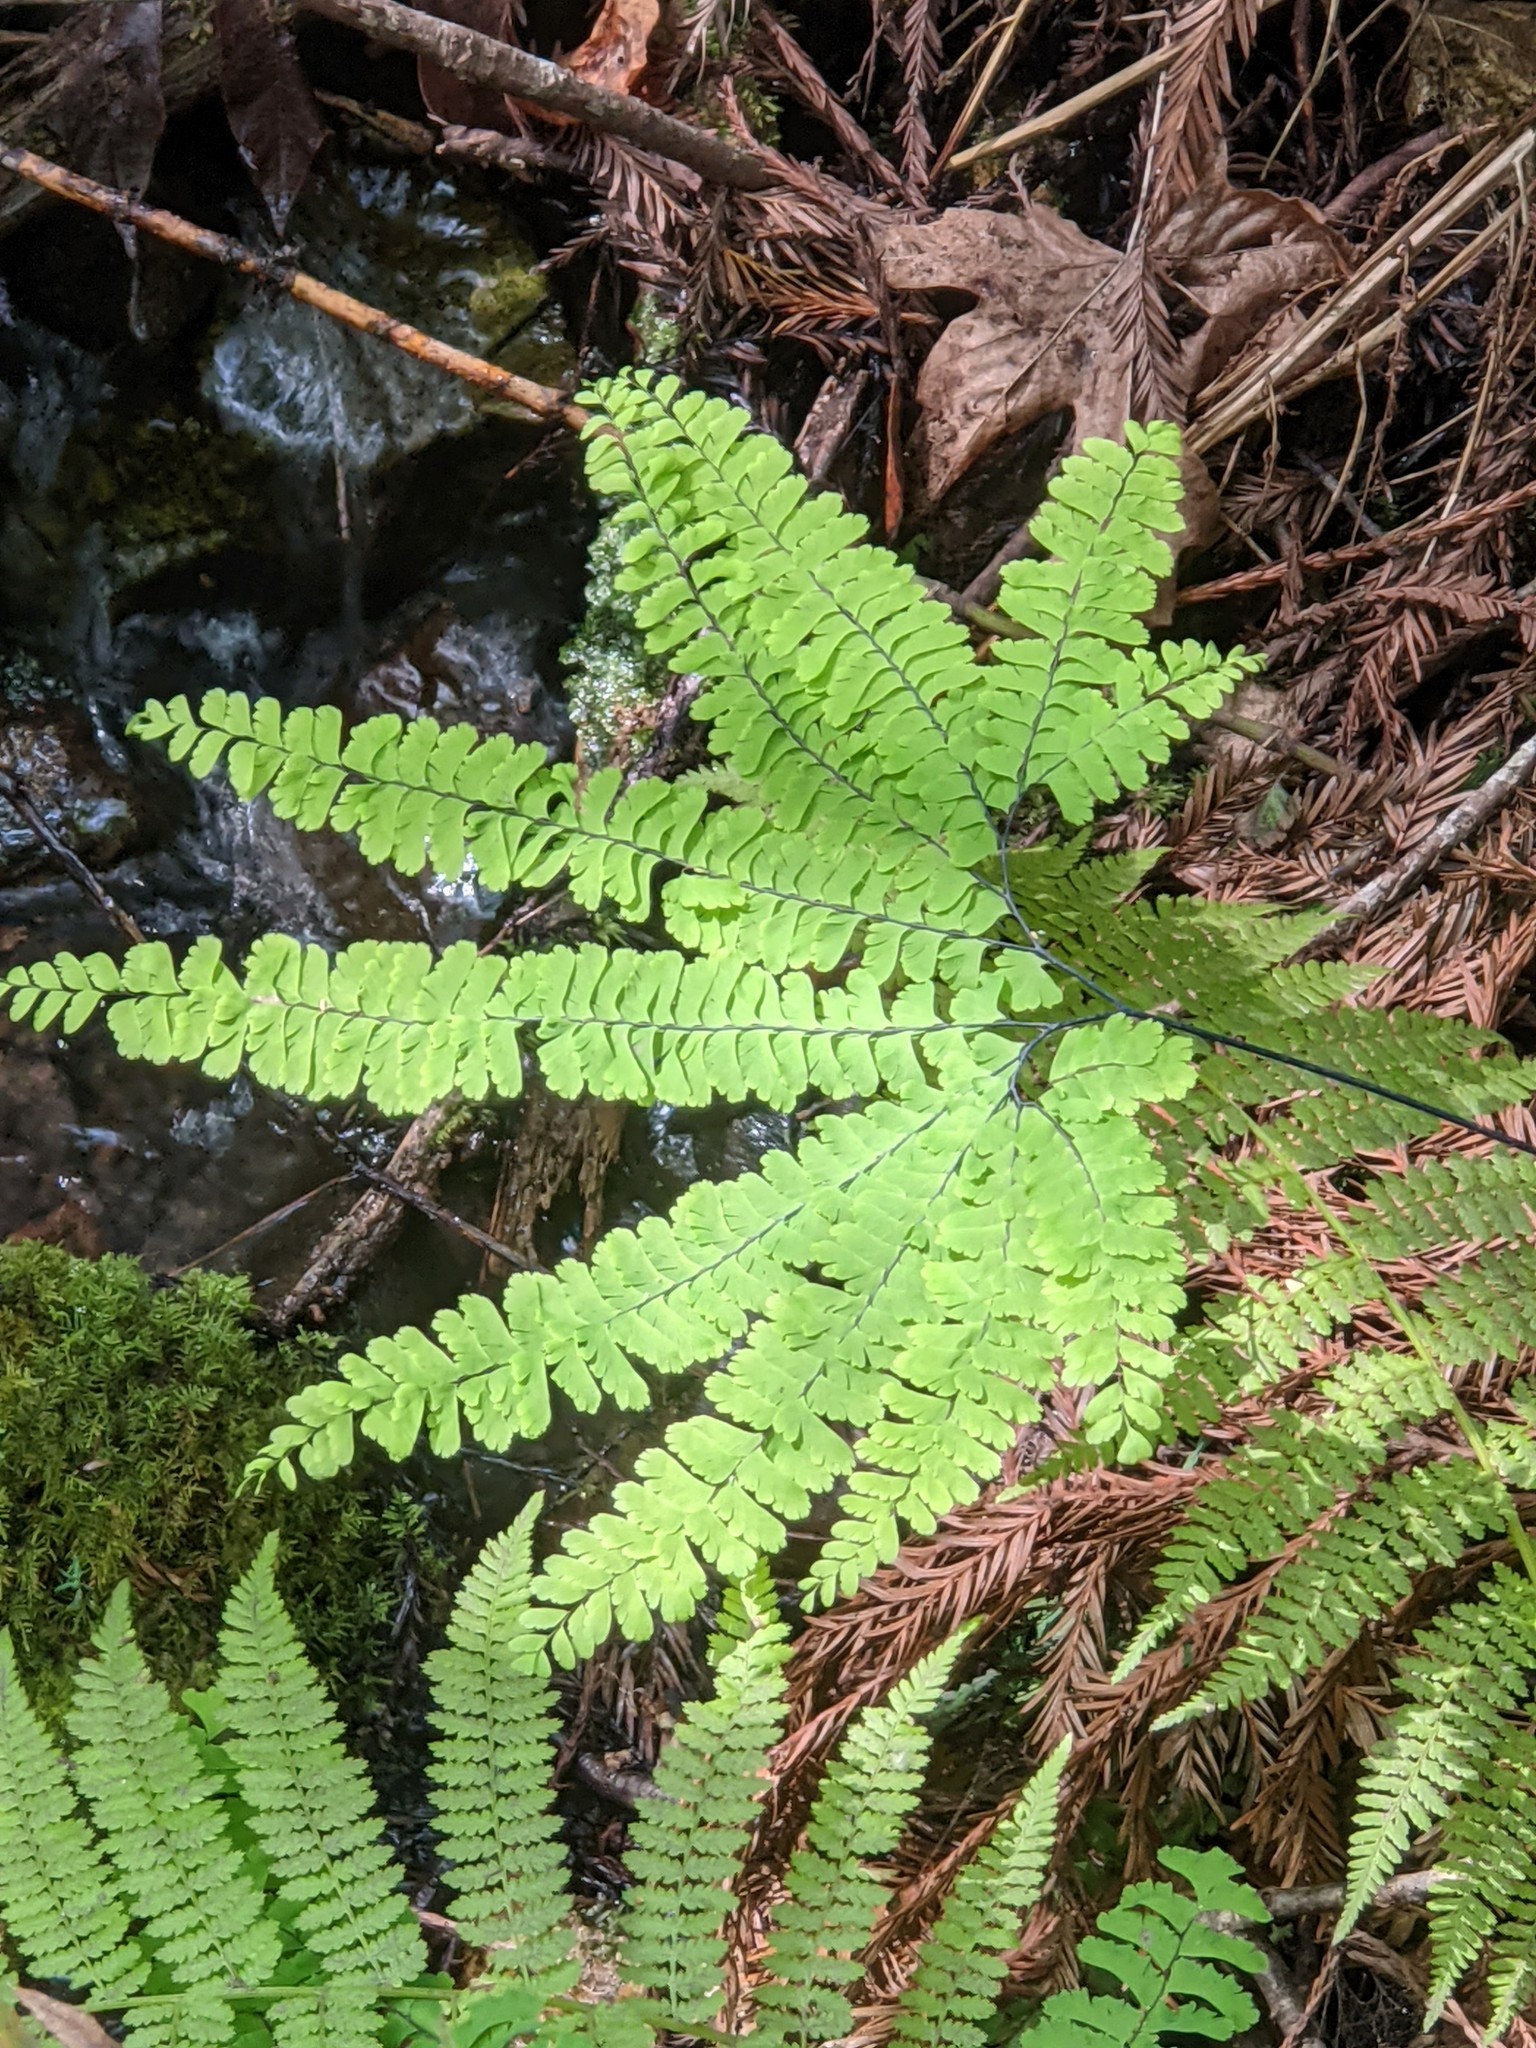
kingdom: Plantae
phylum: Tracheophyta
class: Polypodiopsida
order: Polypodiales
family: Pteridaceae
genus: Adiantum
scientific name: Adiantum aleuticum
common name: Aleutian maidenhair fern
